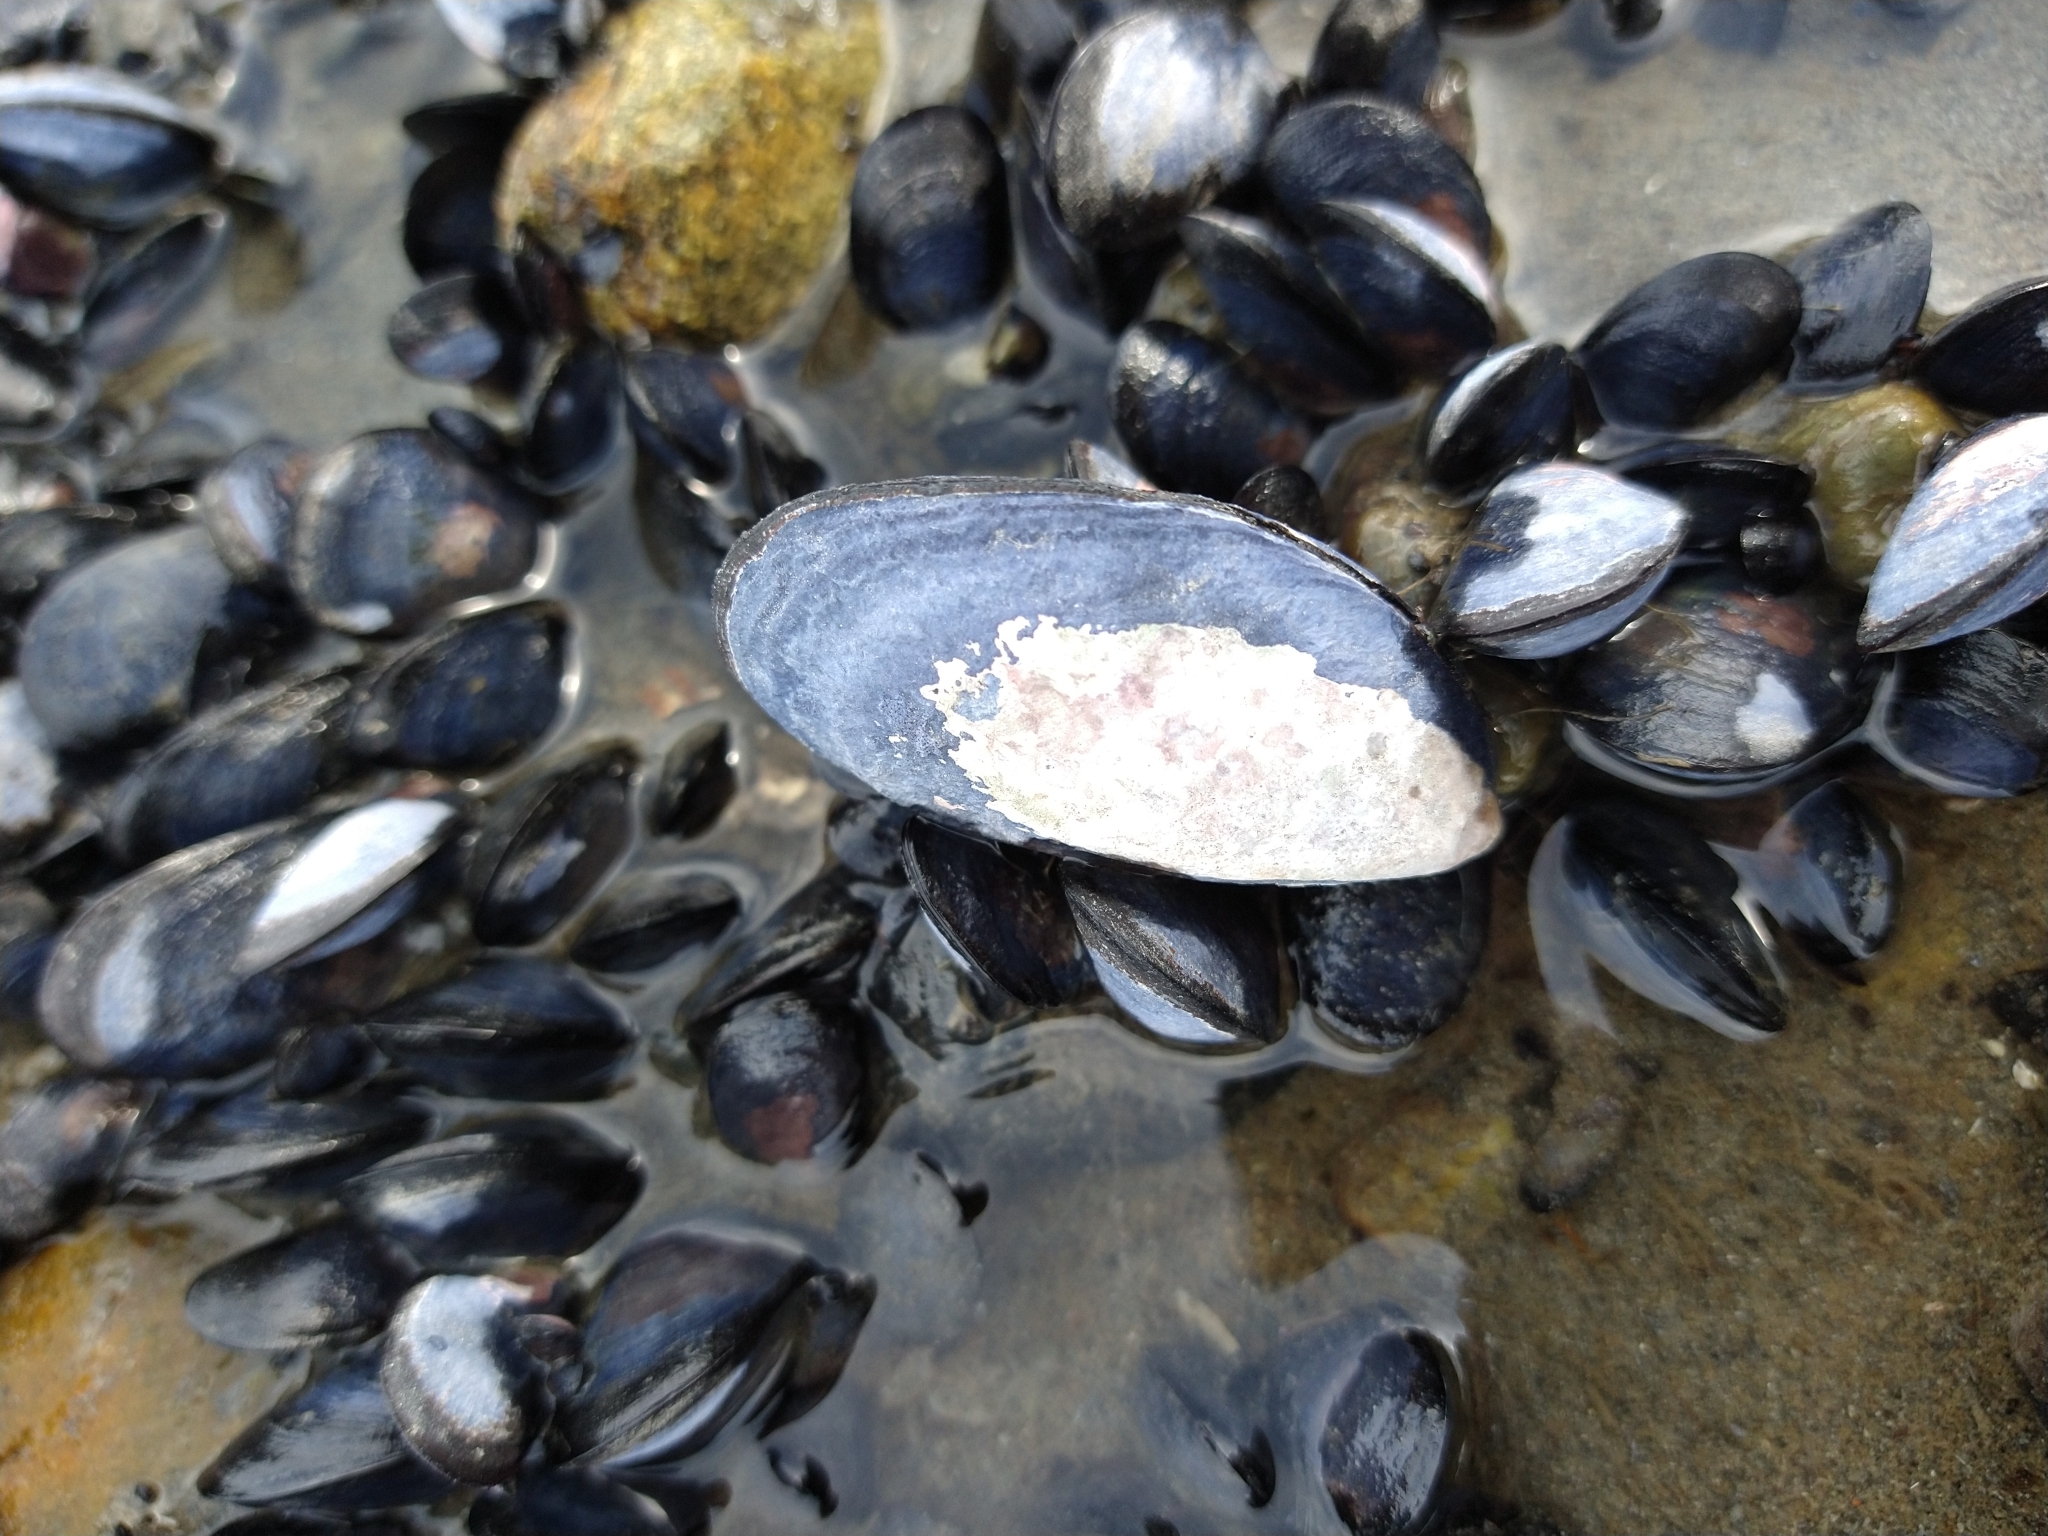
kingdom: Animalia
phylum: Mollusca
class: Bivalvia
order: Mytilida
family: Mytilidae
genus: Mytilus
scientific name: Mytilus chilensis
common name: Chilean mussel
